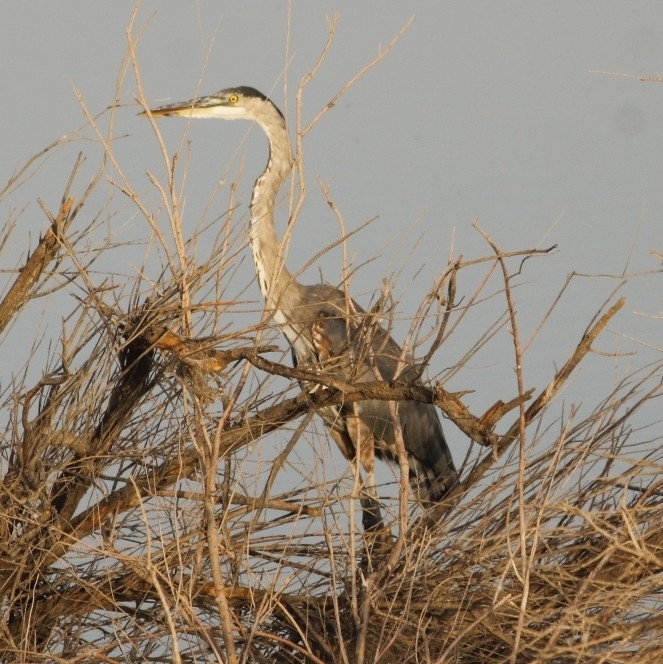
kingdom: Animalia
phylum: Chordata
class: Aves
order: Pelecaniformes
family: Ardeidae
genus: Ardea
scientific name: Ardea herodias
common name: Great blue heron
